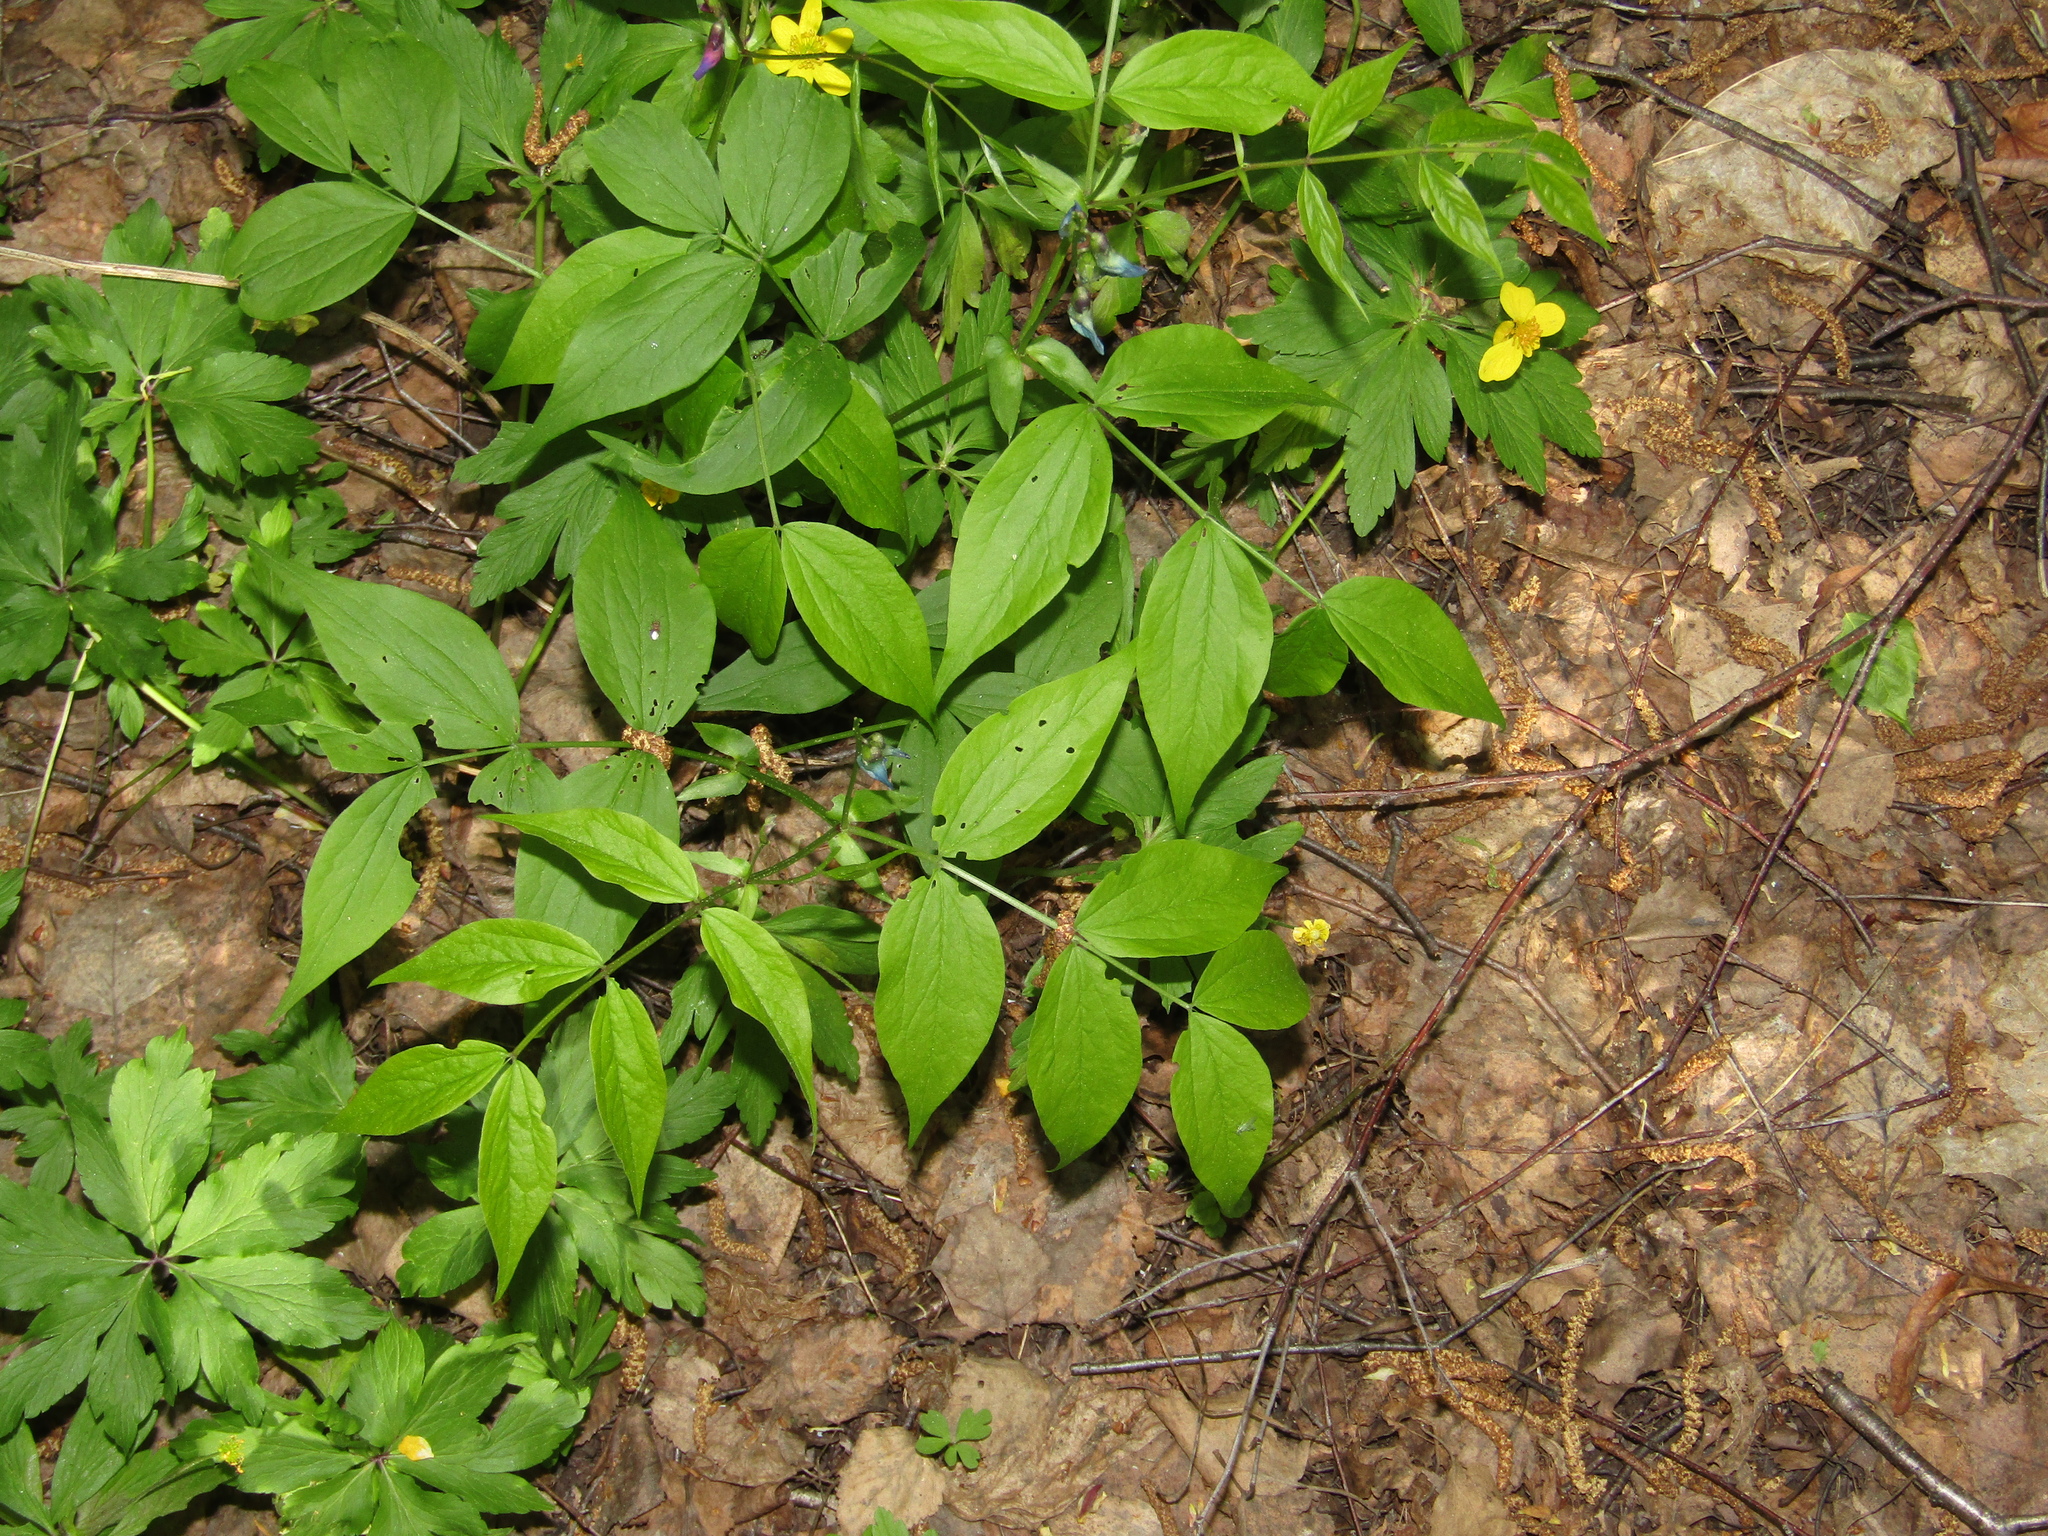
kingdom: Plantae
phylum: Tracheophyta
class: Magnoliopsida
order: Fabales
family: Fabaceae
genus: Lathyrus
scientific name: Lathyrus vernus
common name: Spring pea
